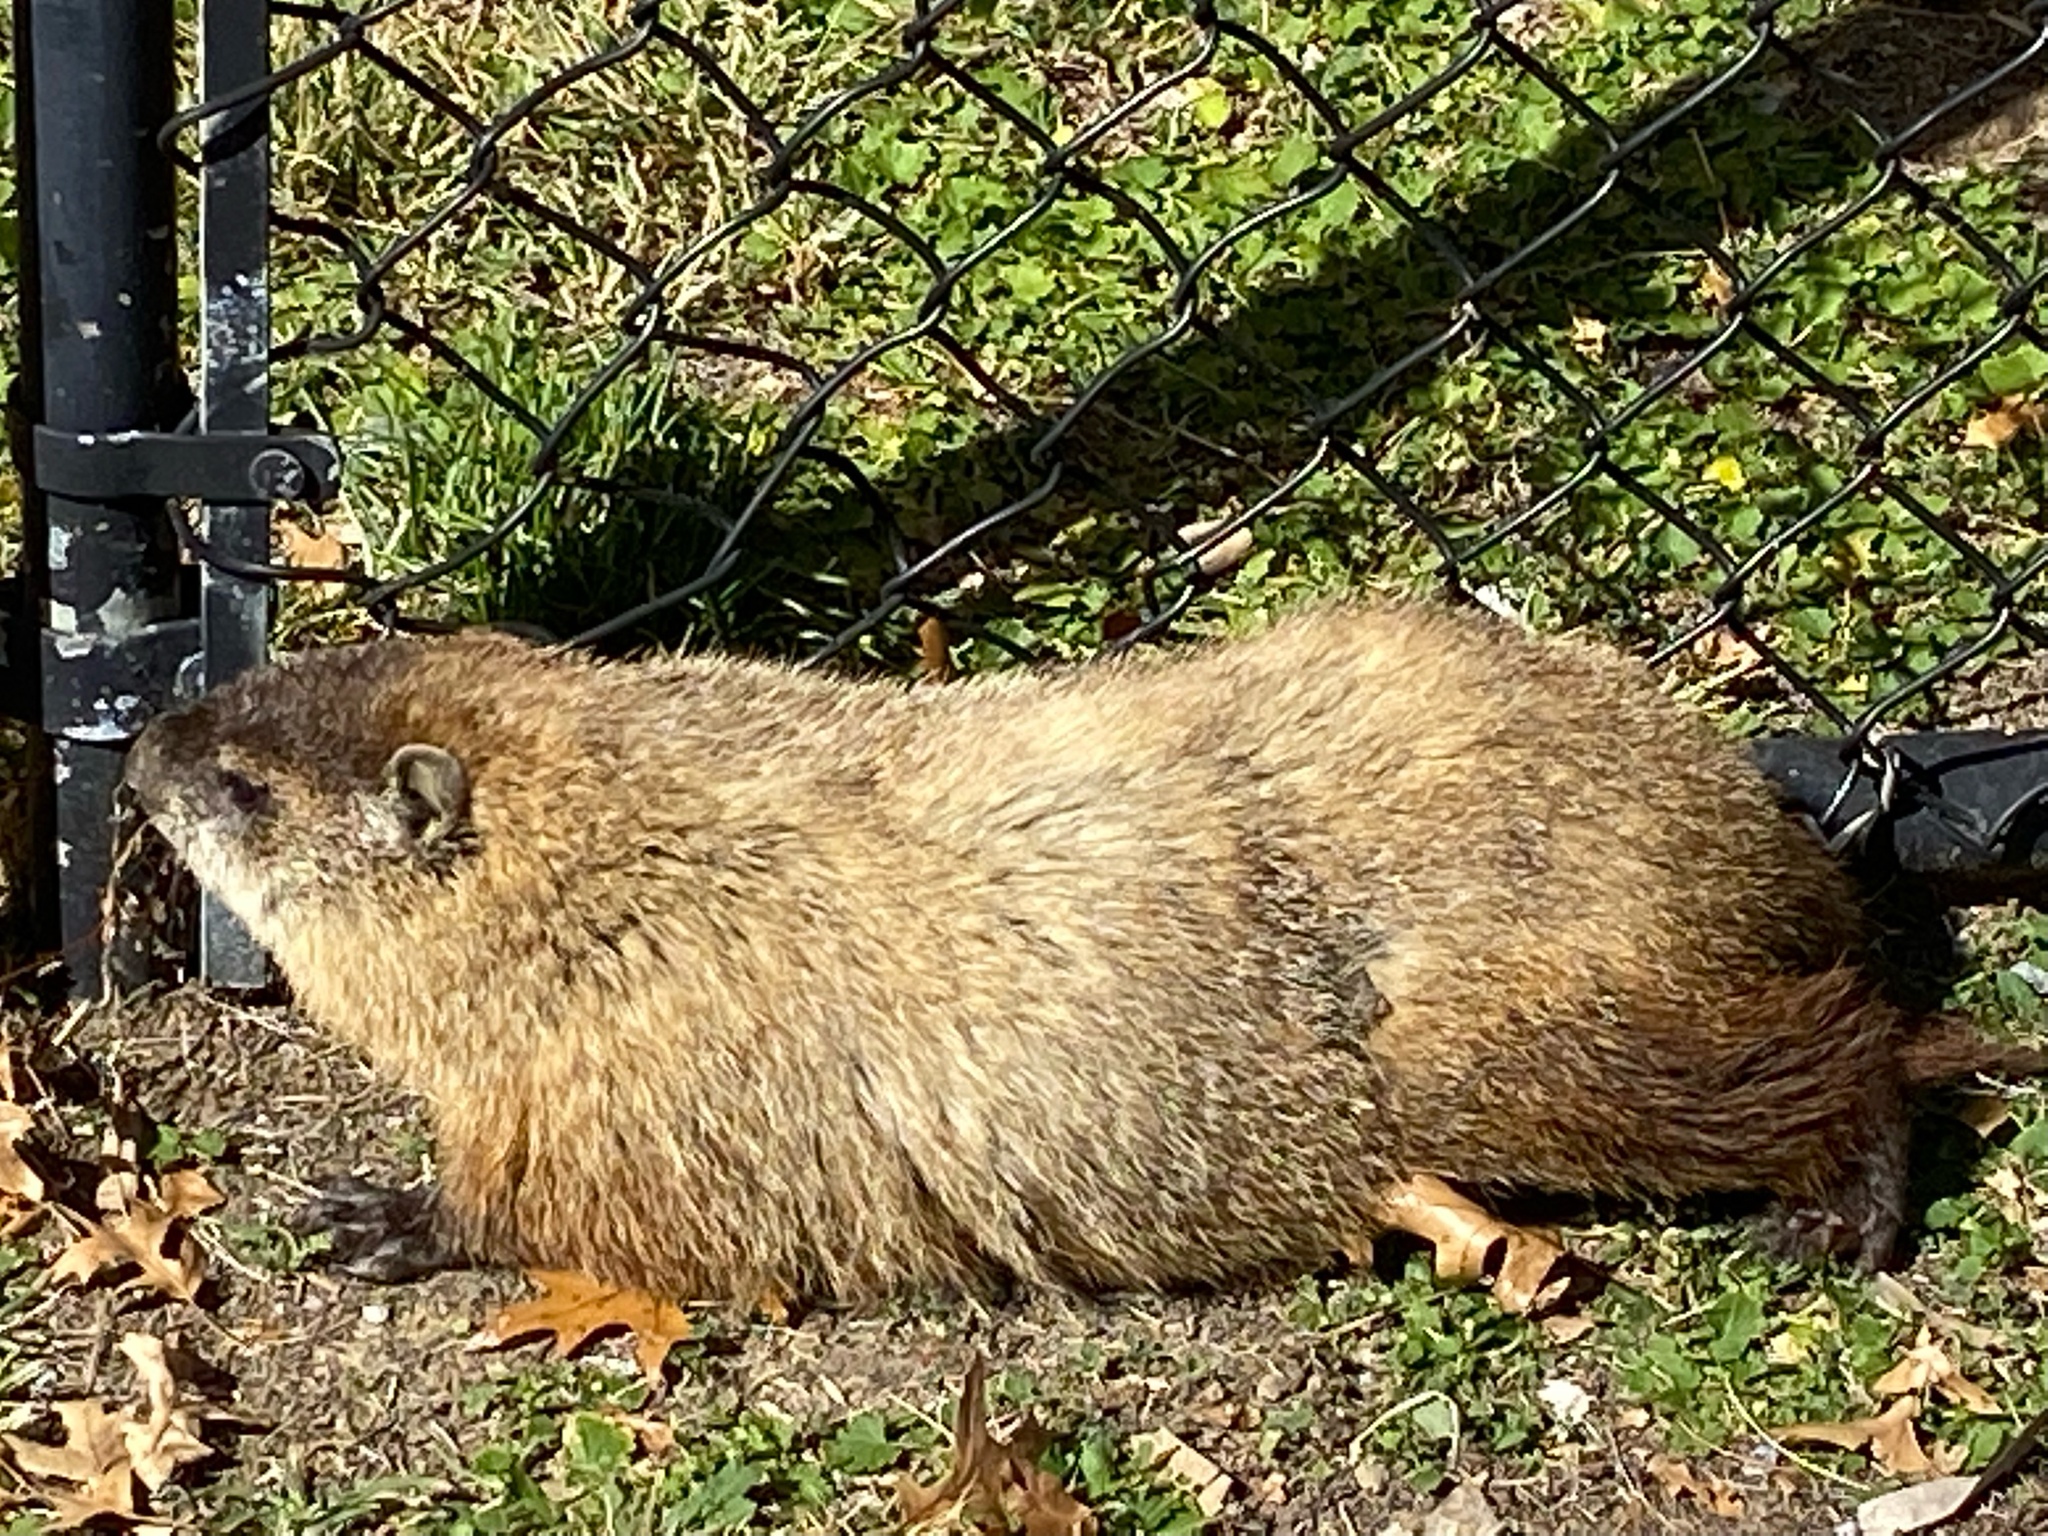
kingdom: Animalia
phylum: Chordata
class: Mammalia
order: Rodentia
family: Sciuridae
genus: Marmota
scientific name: Marmota monax
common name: Groundhog
